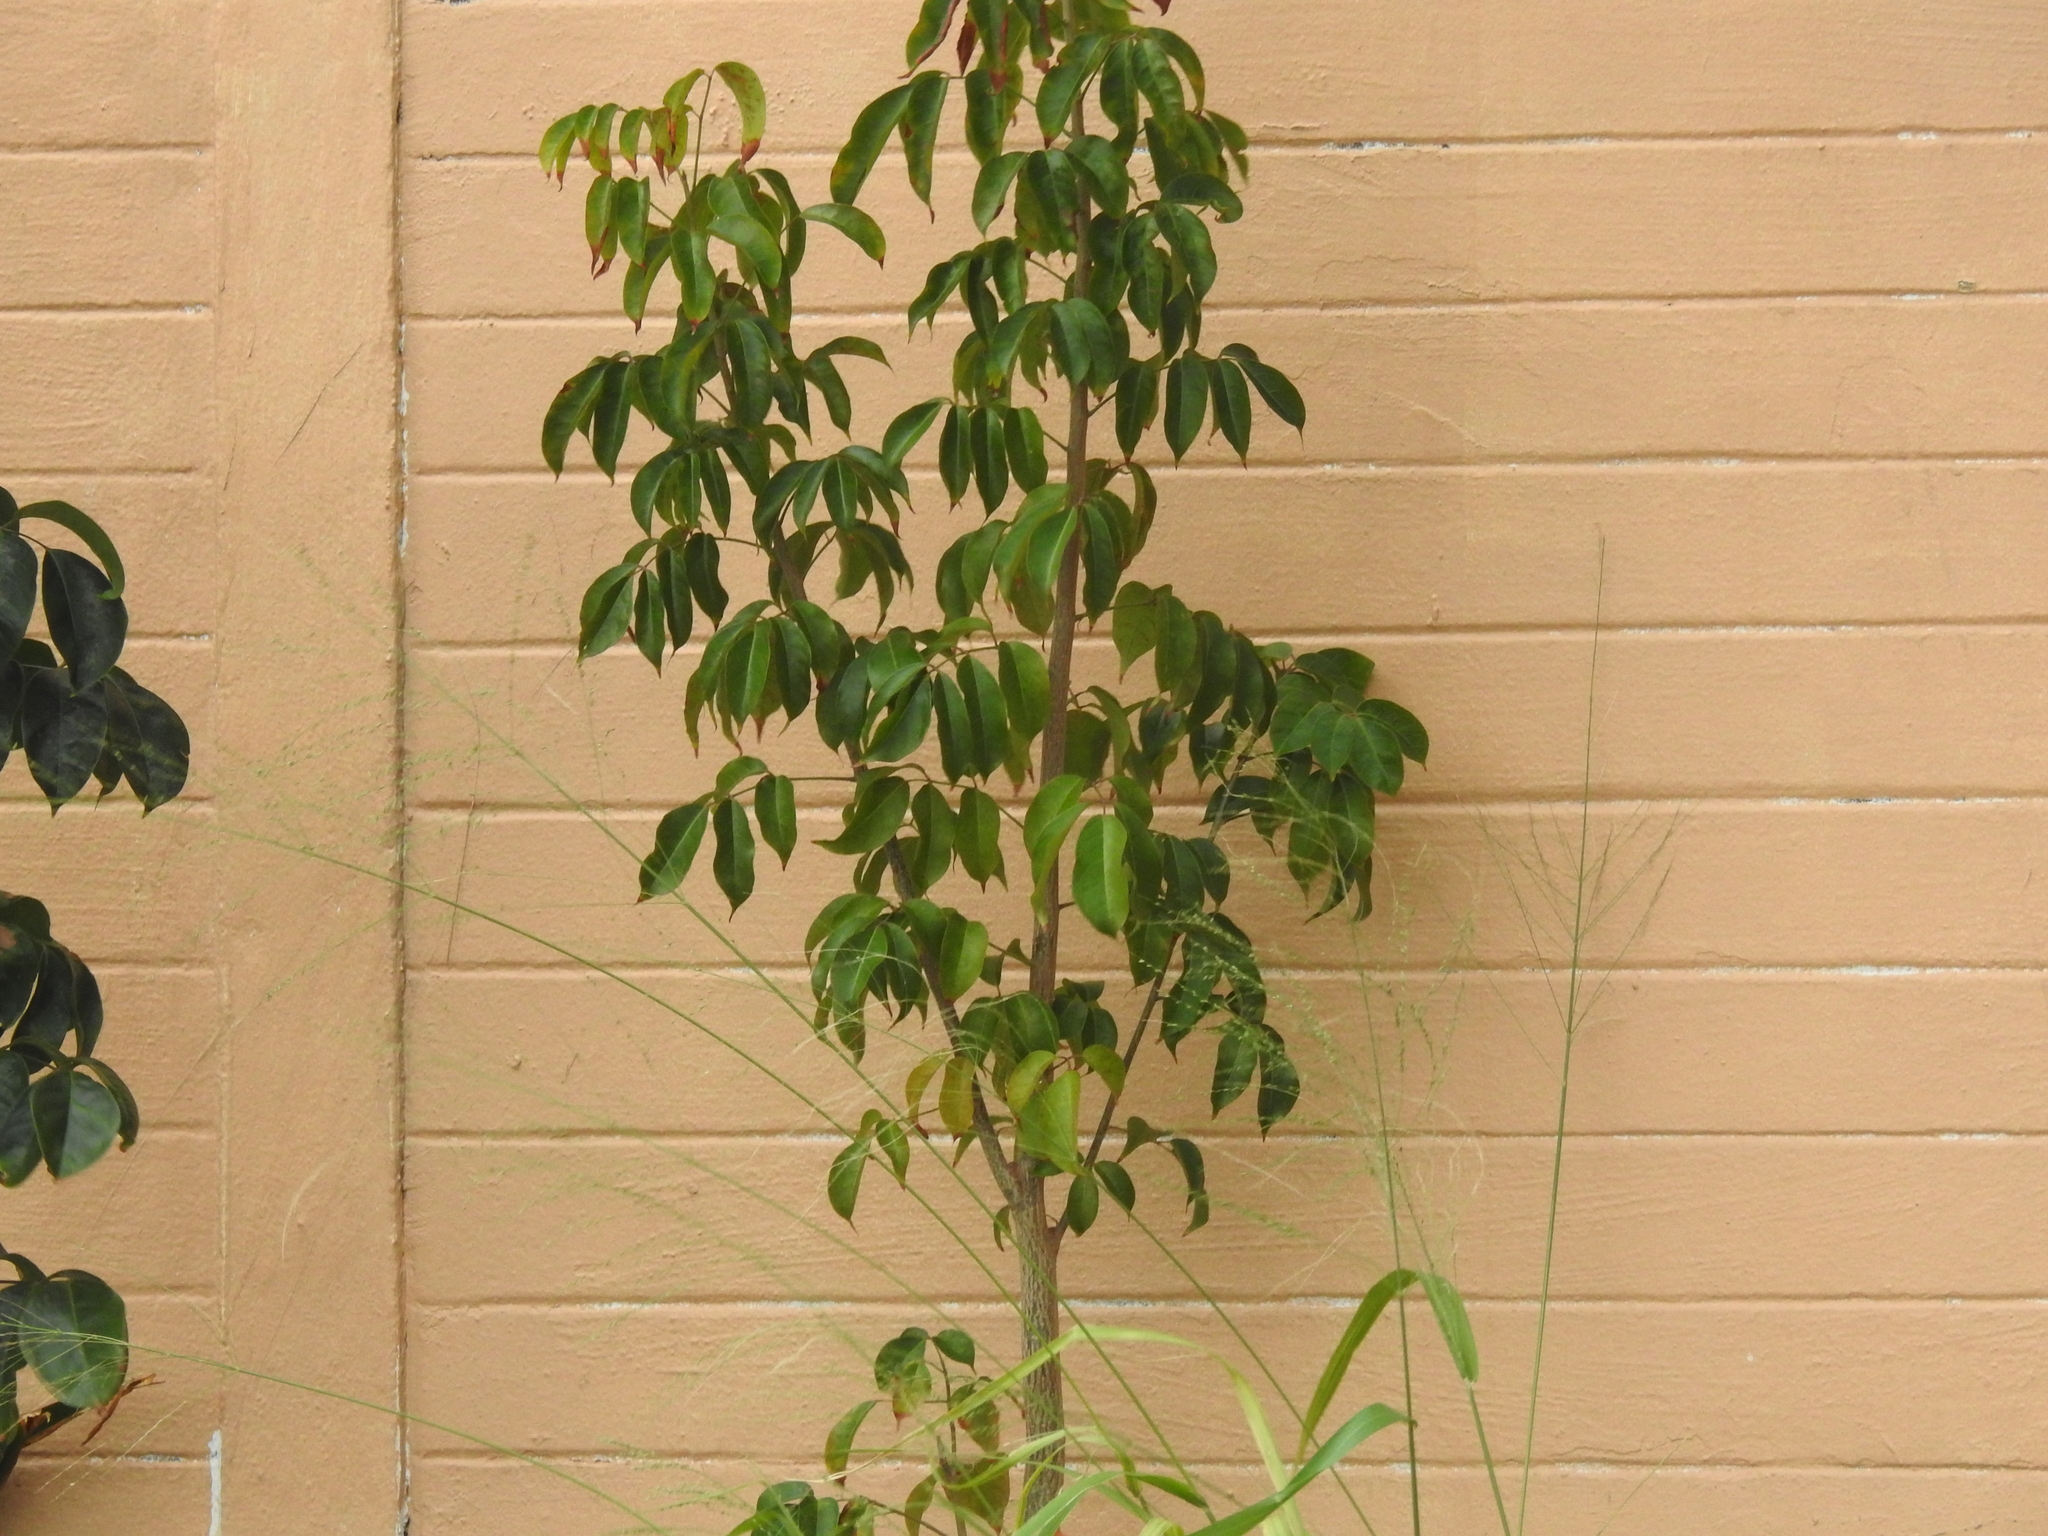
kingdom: Plantae
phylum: Tracheophyta
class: Magnoliopsida
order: Sapindales
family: Burseraceae
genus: Bursera
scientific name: Bursera simaruba
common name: Turpentine tree
